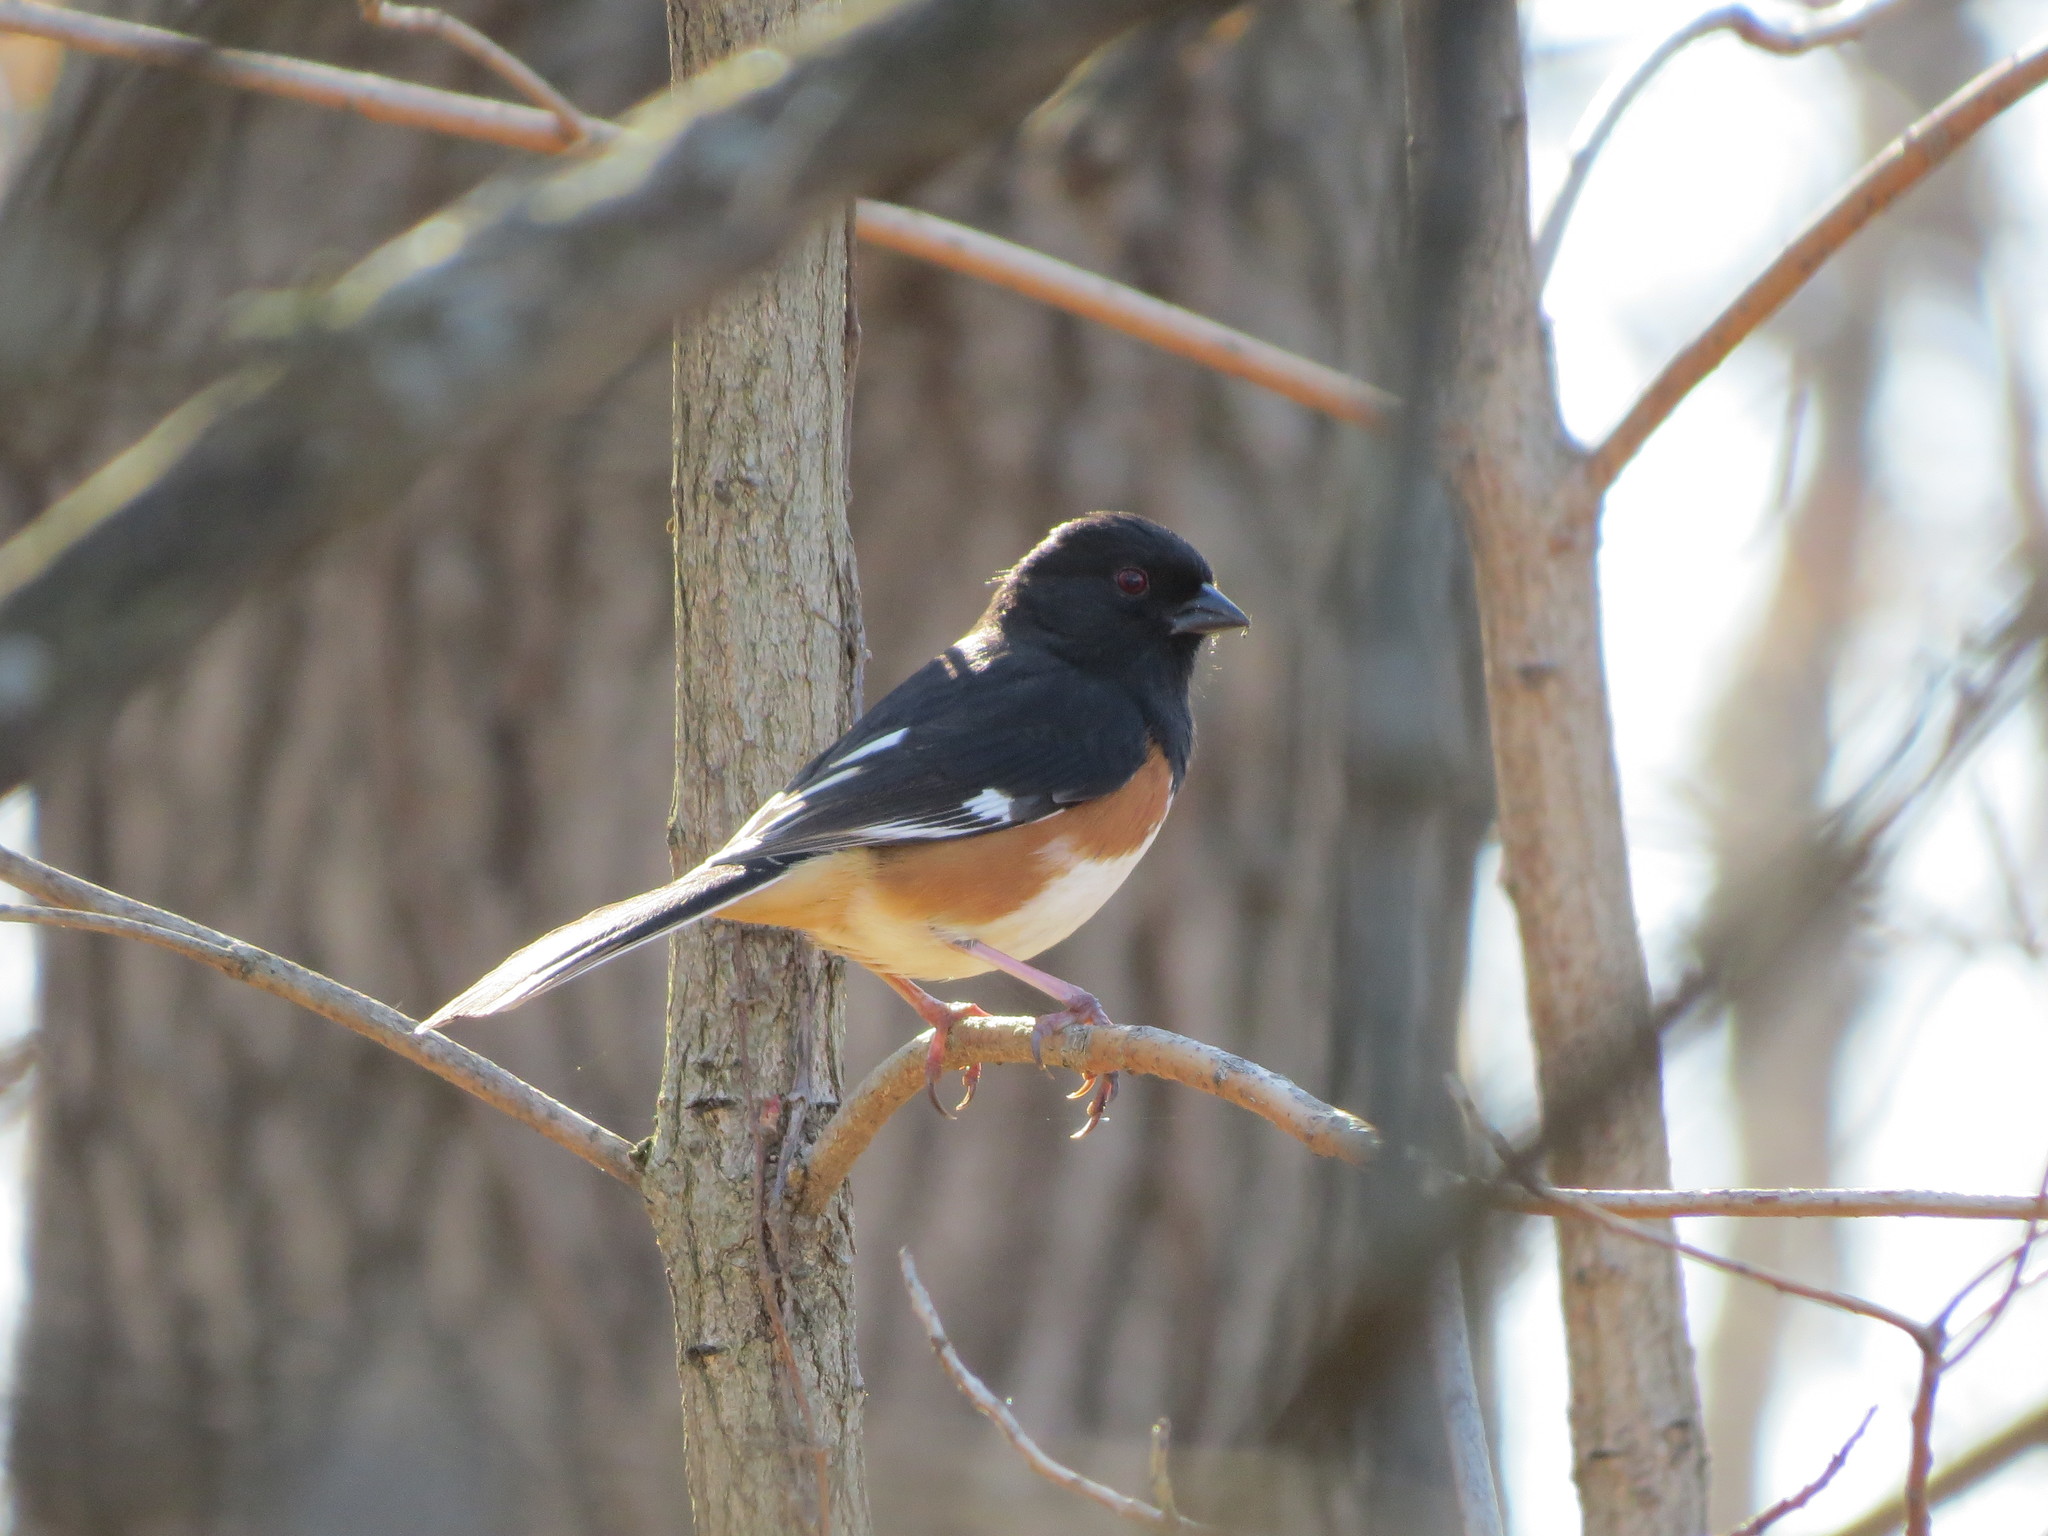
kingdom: Animalia
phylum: Chordata
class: Aves
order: Passeriformes
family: Passerellidae
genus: Pipilo
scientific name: Pipilo erythrophthalmus
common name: Eastern towhee
